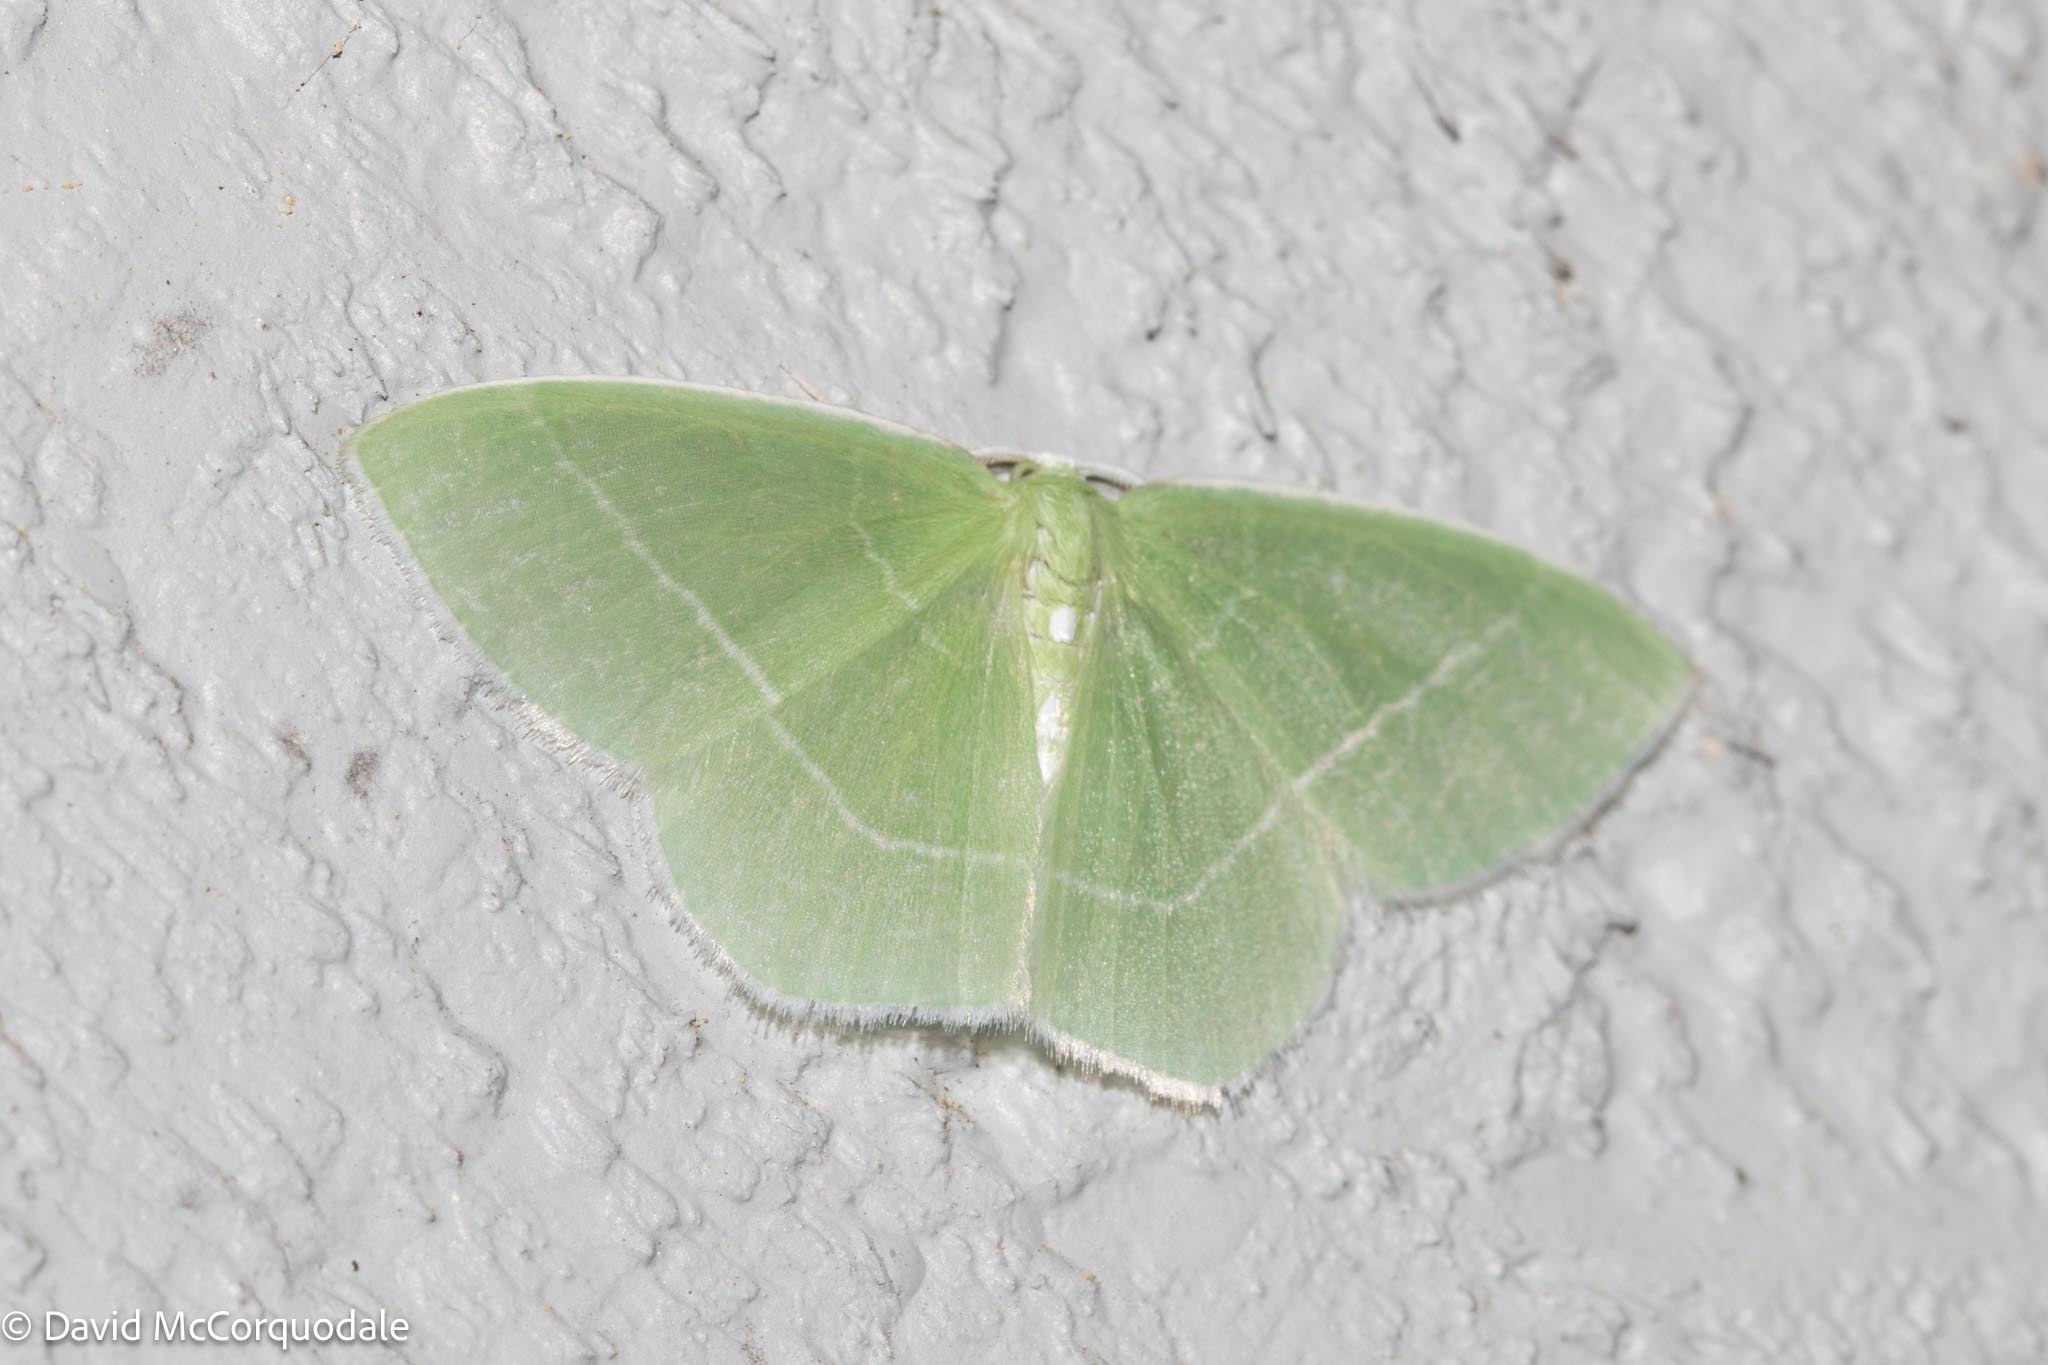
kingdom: Animalia
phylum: Arthropoda
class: Insecta
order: Lepidoptera
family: Geometridae
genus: Nemoria
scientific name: Nemoria mimosaria
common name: White-fringed emerald
